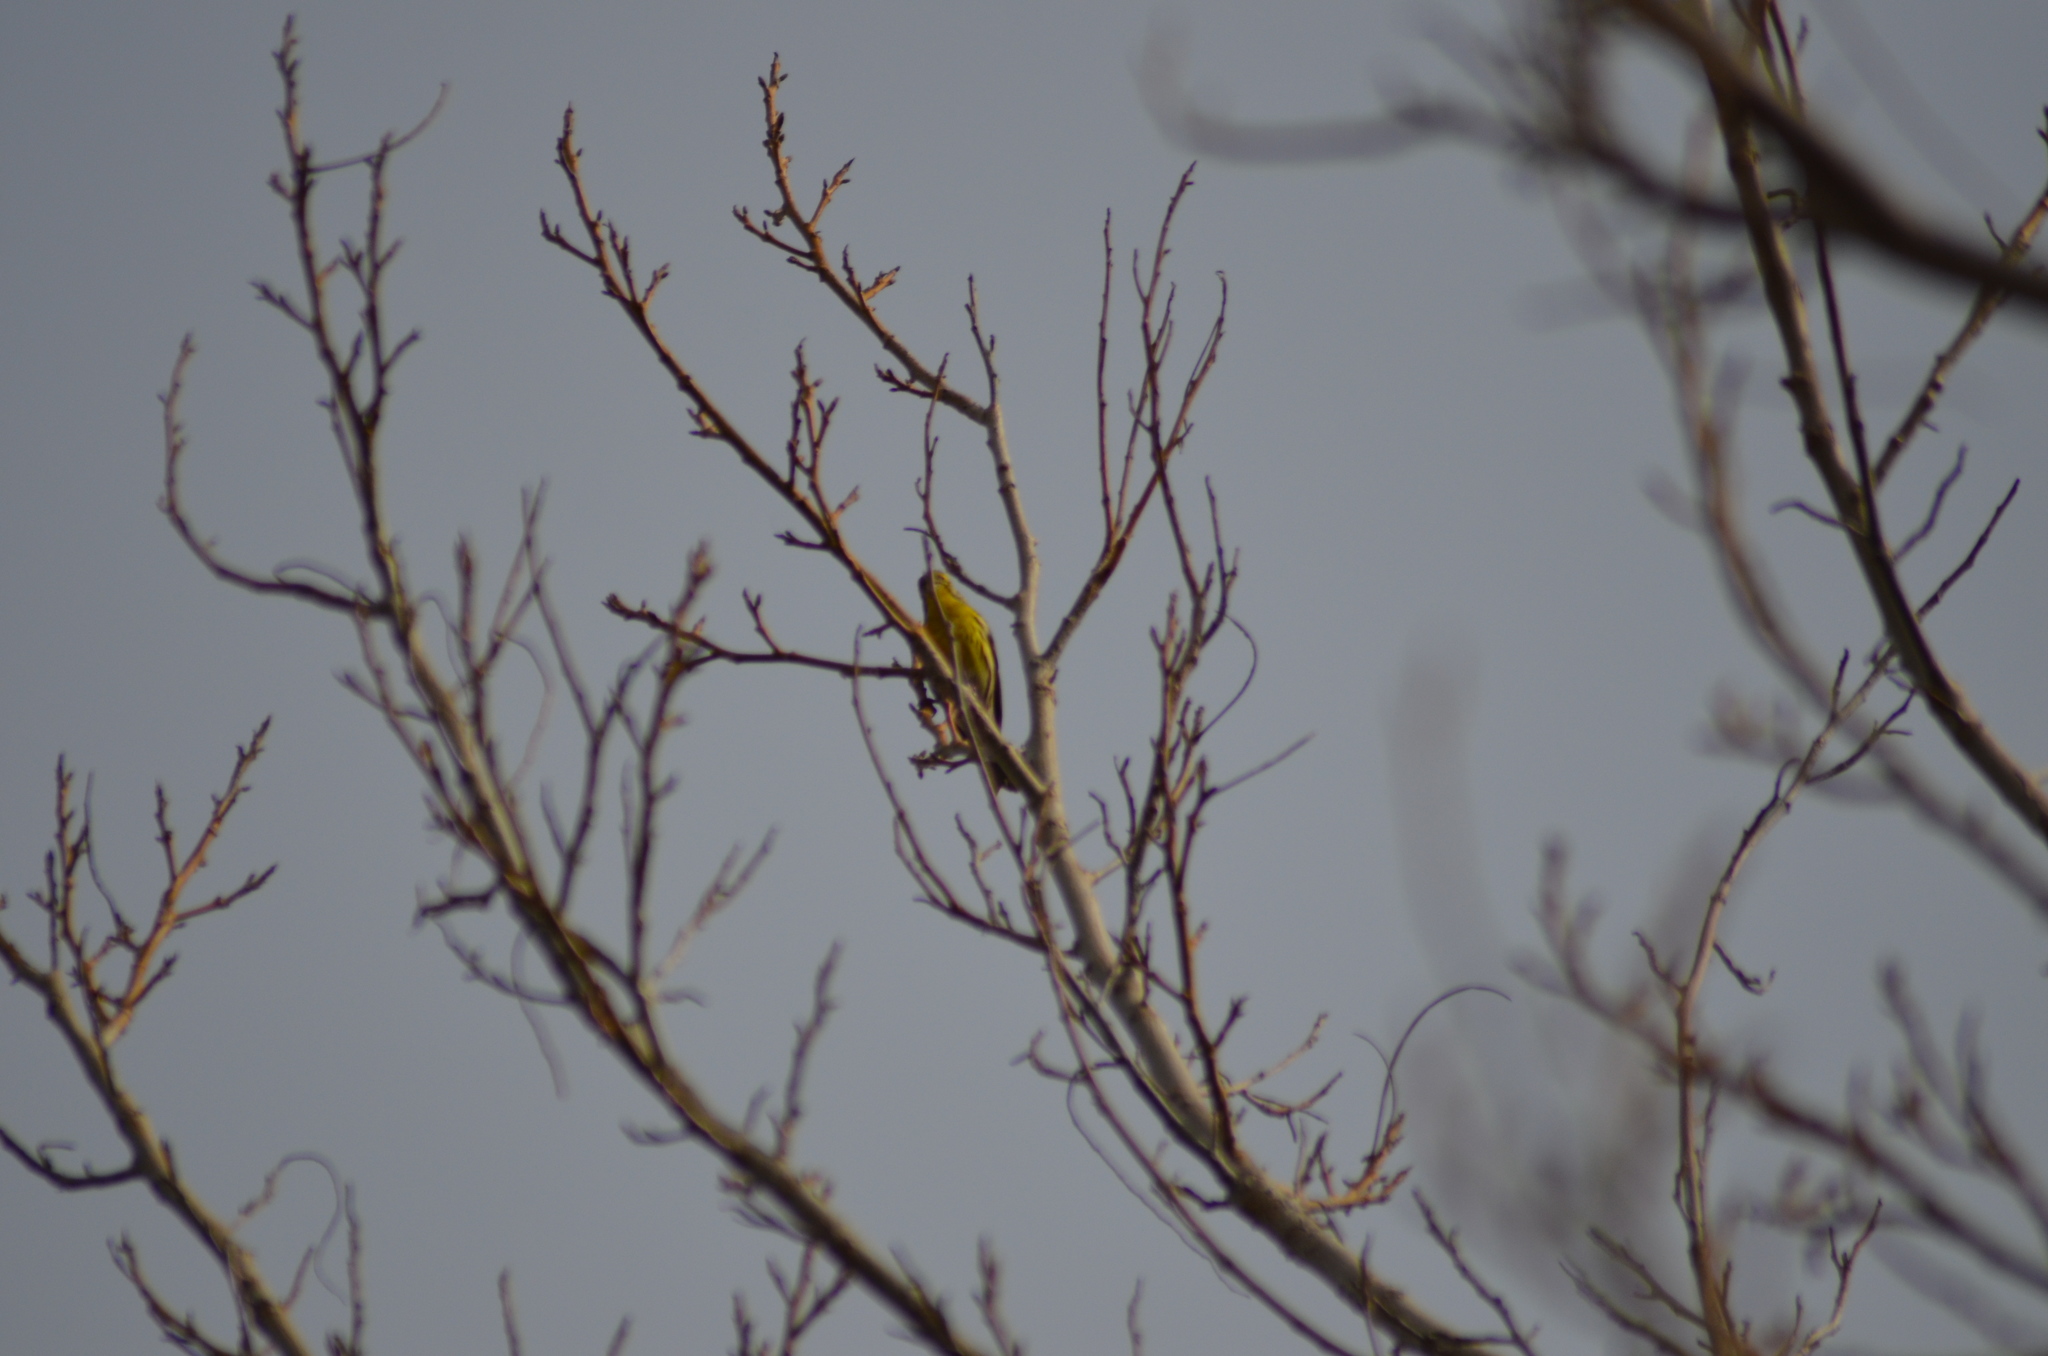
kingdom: Animalia
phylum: Chordata
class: Aves
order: Passeriformes
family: Fringillidae
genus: Serinus
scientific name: Serinus serinus
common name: European serin
